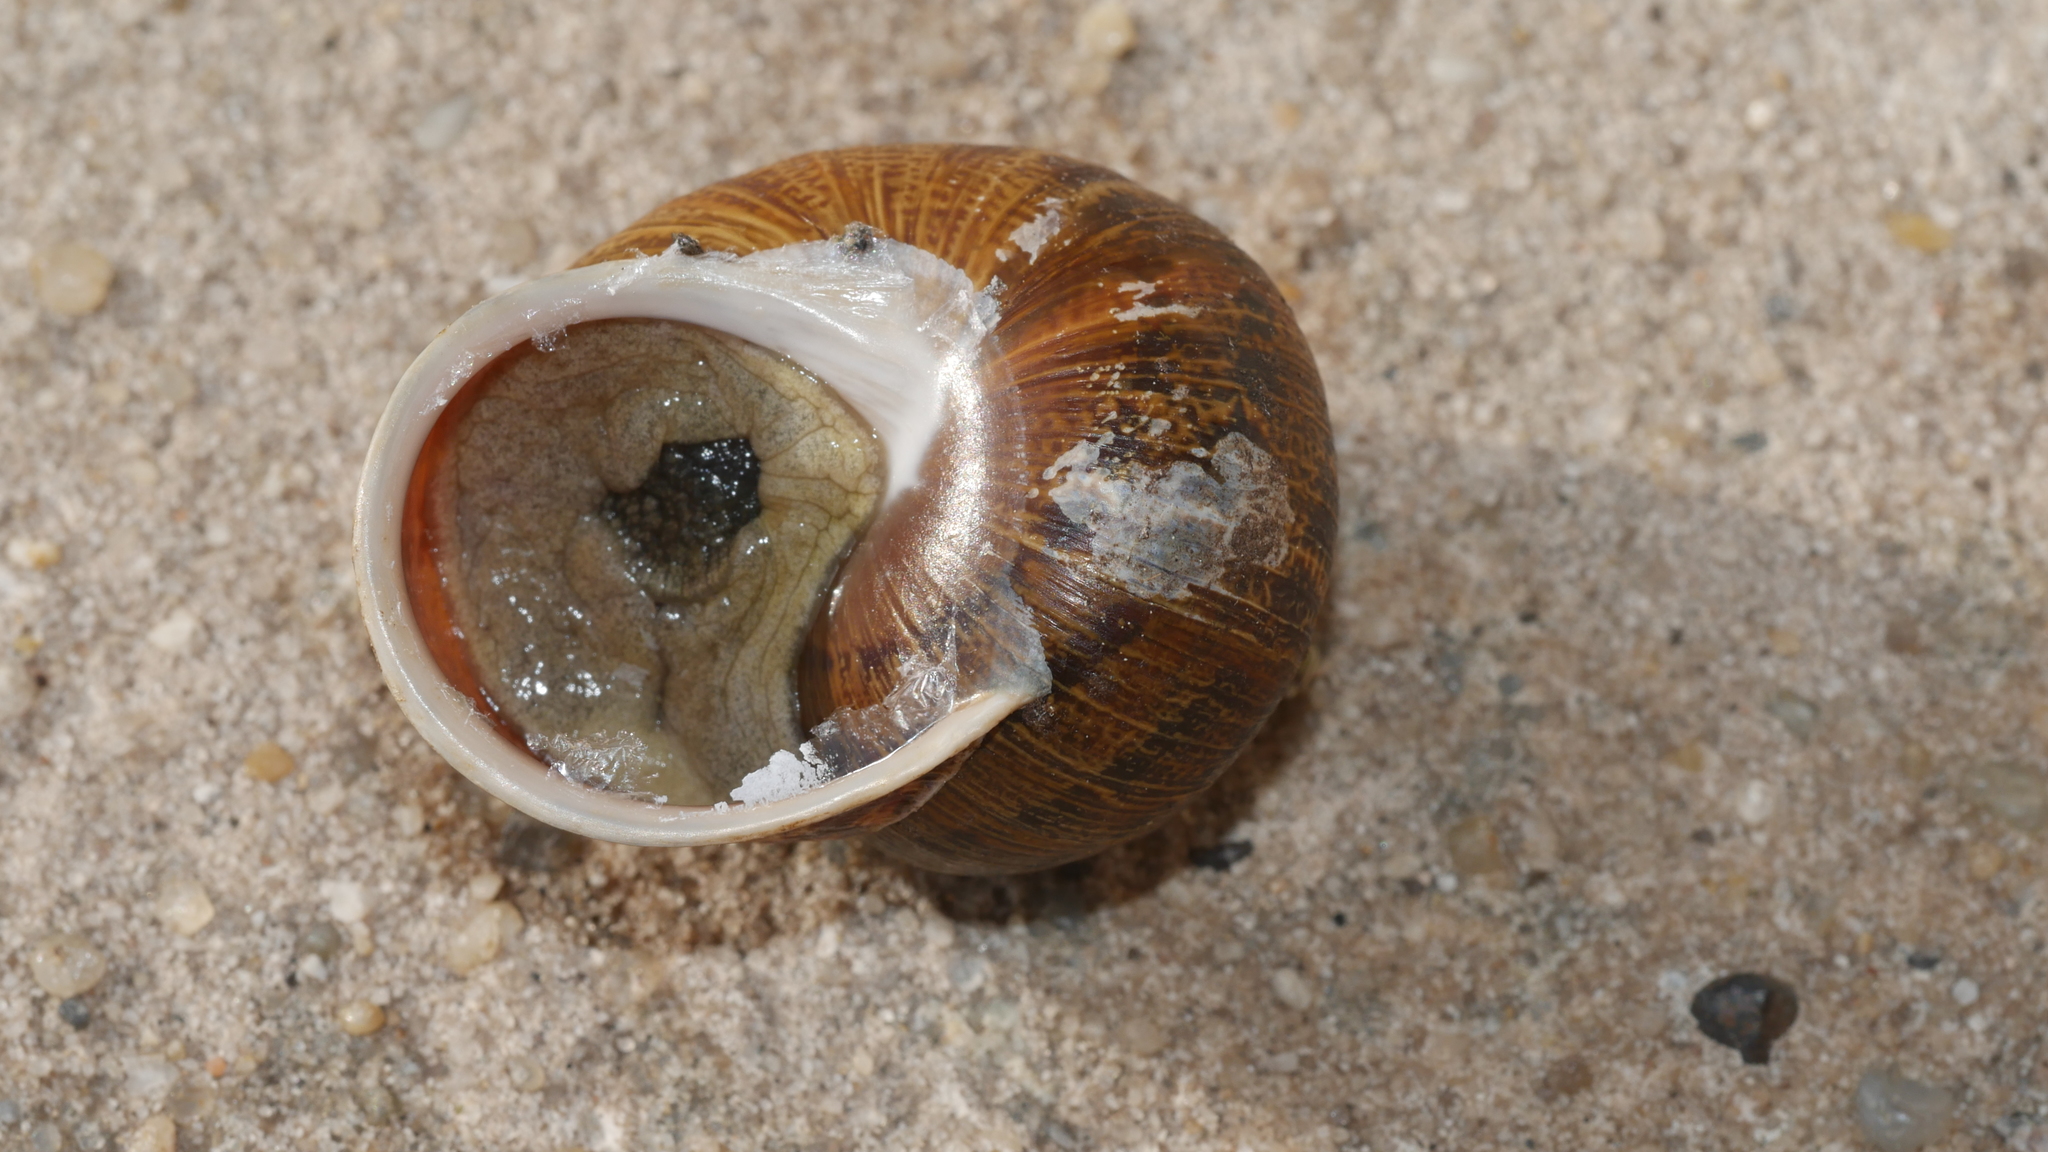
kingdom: Animalia
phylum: Mollusca
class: Gastropoda
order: Stylommatophora
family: Helicidae
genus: Cornu
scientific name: Cornu aspersum
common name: Brown garden snail
